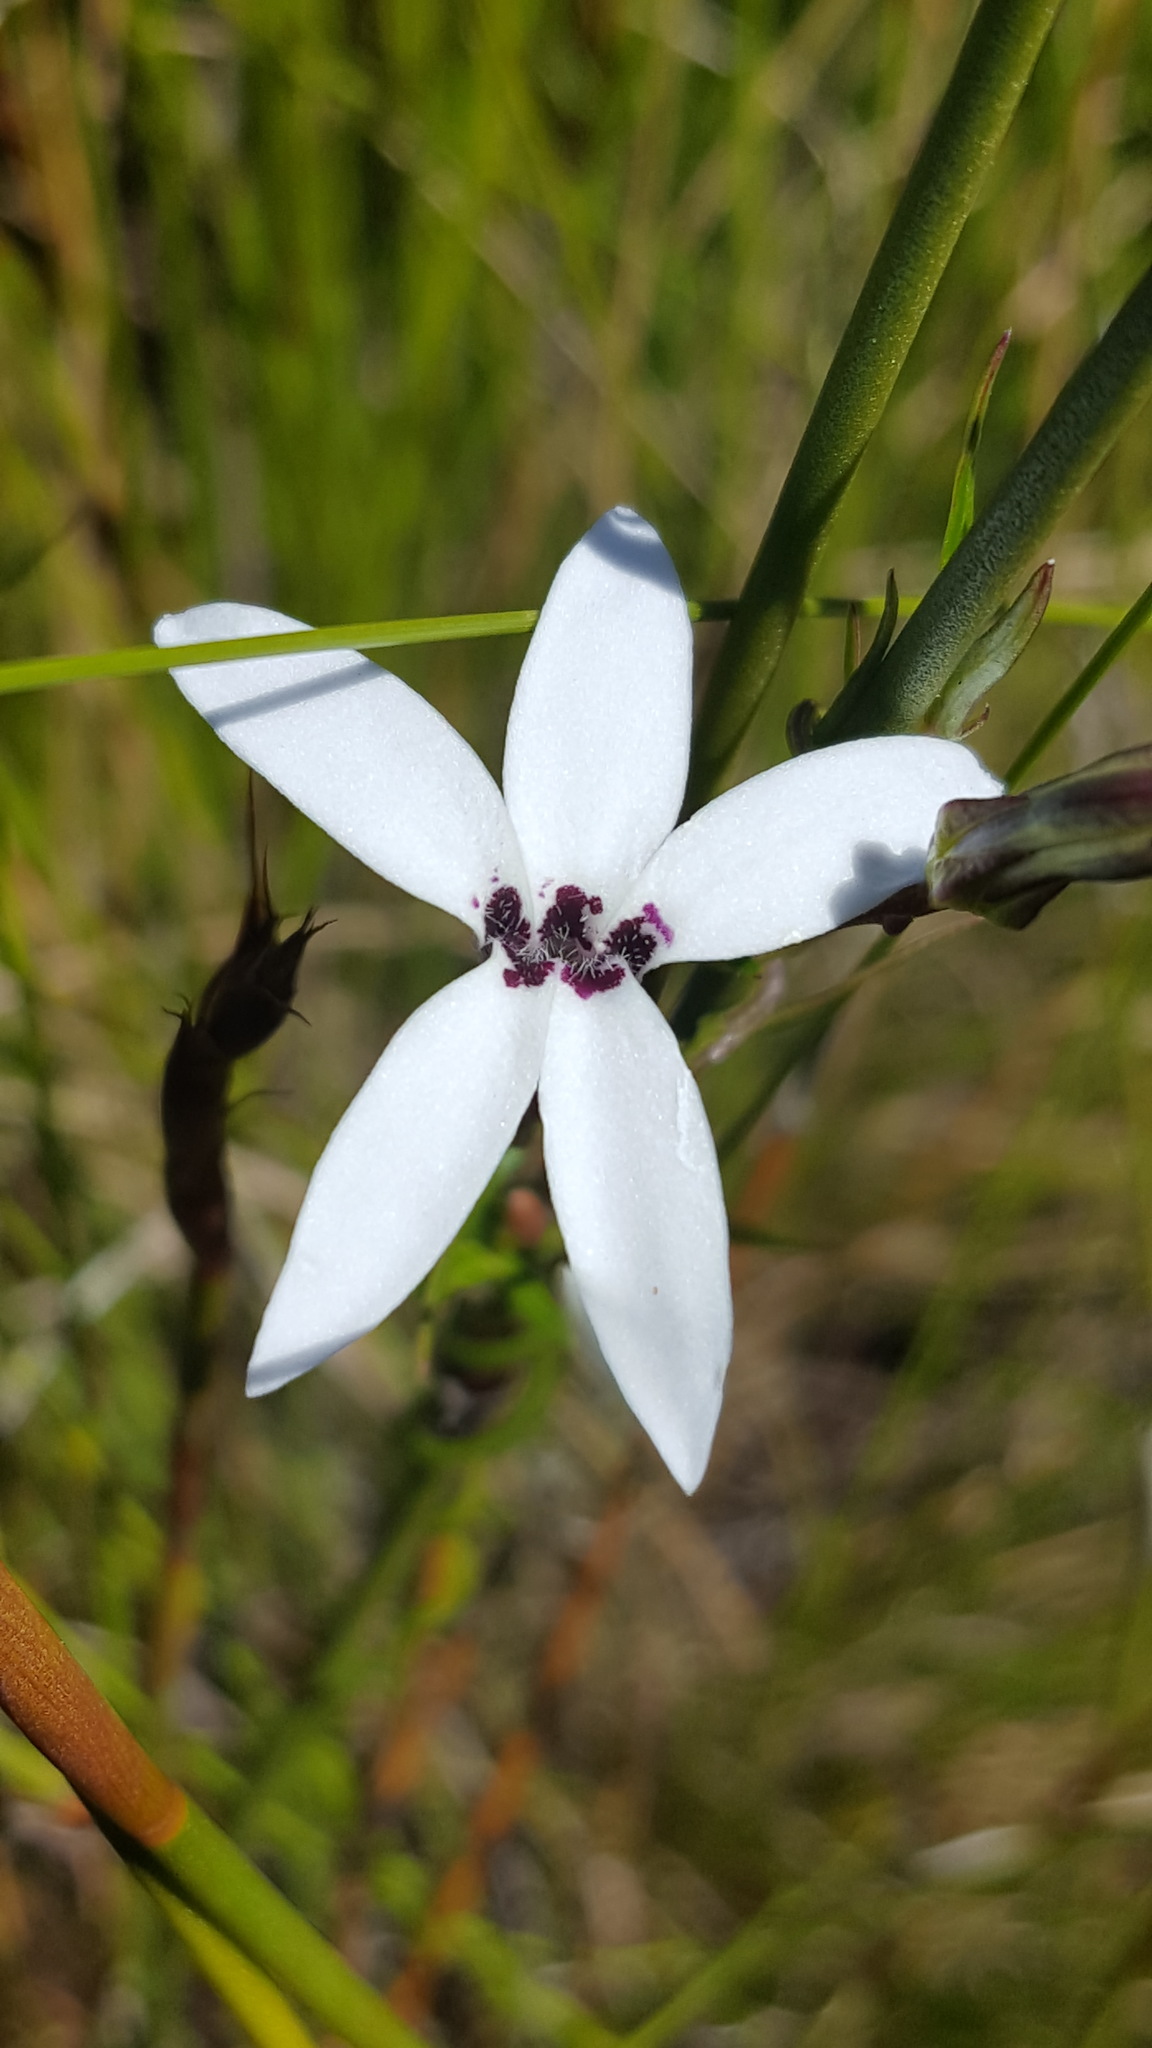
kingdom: Plantae
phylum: Tracheophyta
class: Magnoliopsida
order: Asterales
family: Campanulaceae
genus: Cyphia
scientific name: Cyphia volubilis
